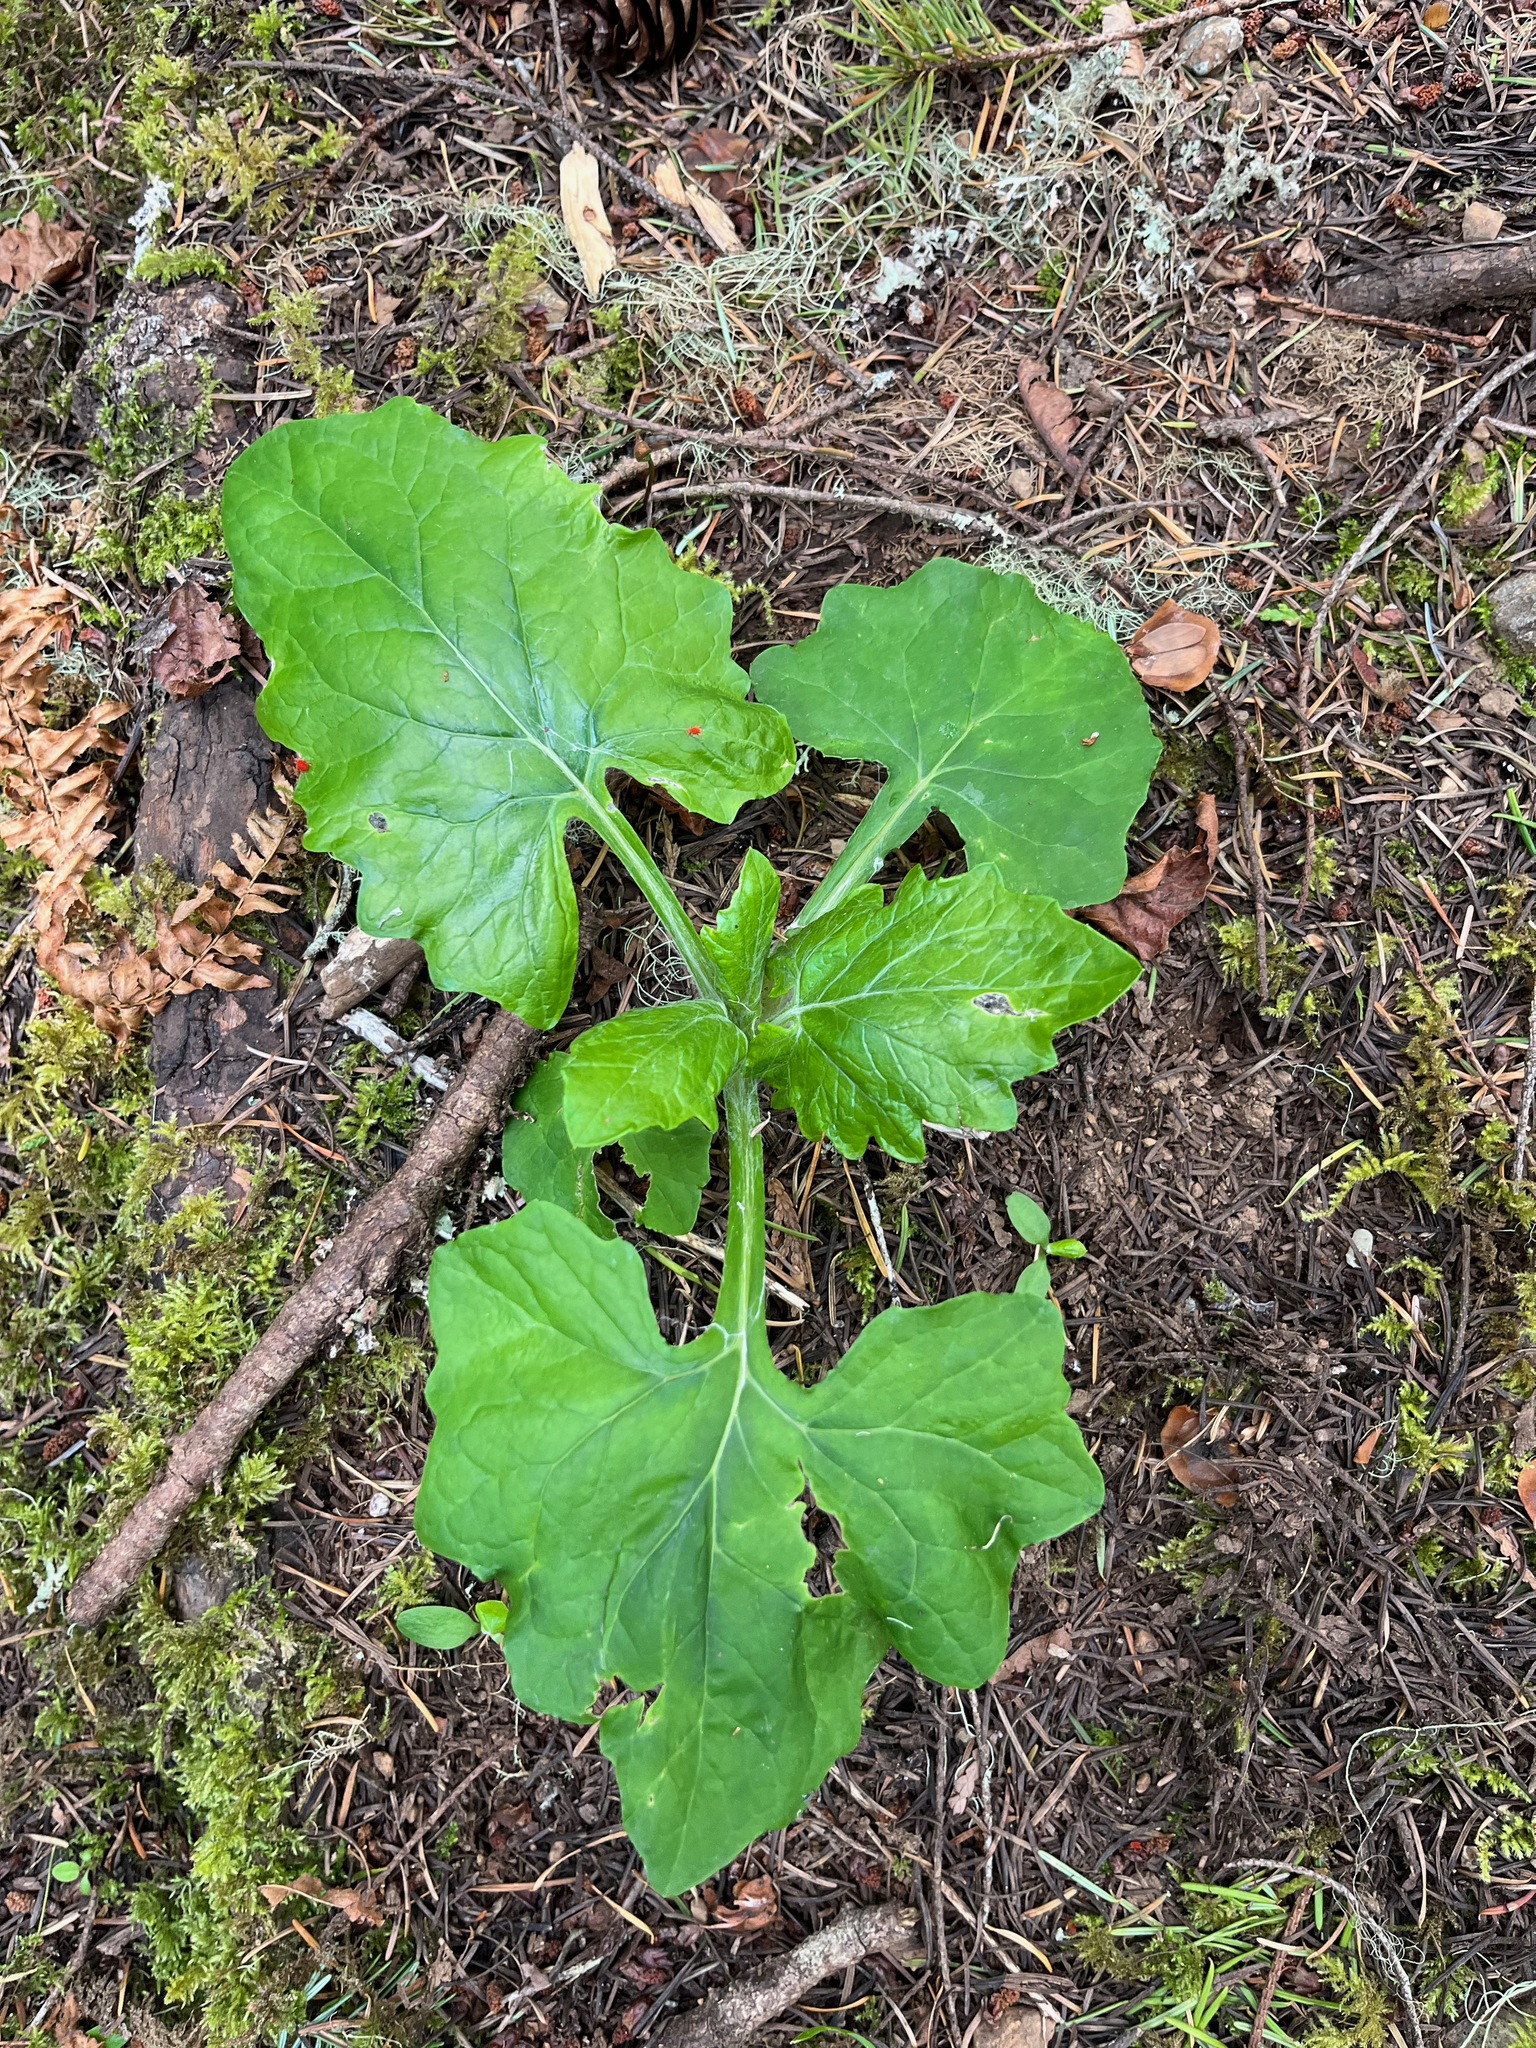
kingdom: Plantae
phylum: Tracheophyta
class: Magnoliopsida
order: Asterales
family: Asteraceae
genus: Adenocaulon
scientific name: Adenocaulon bicolor
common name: Trailplant
